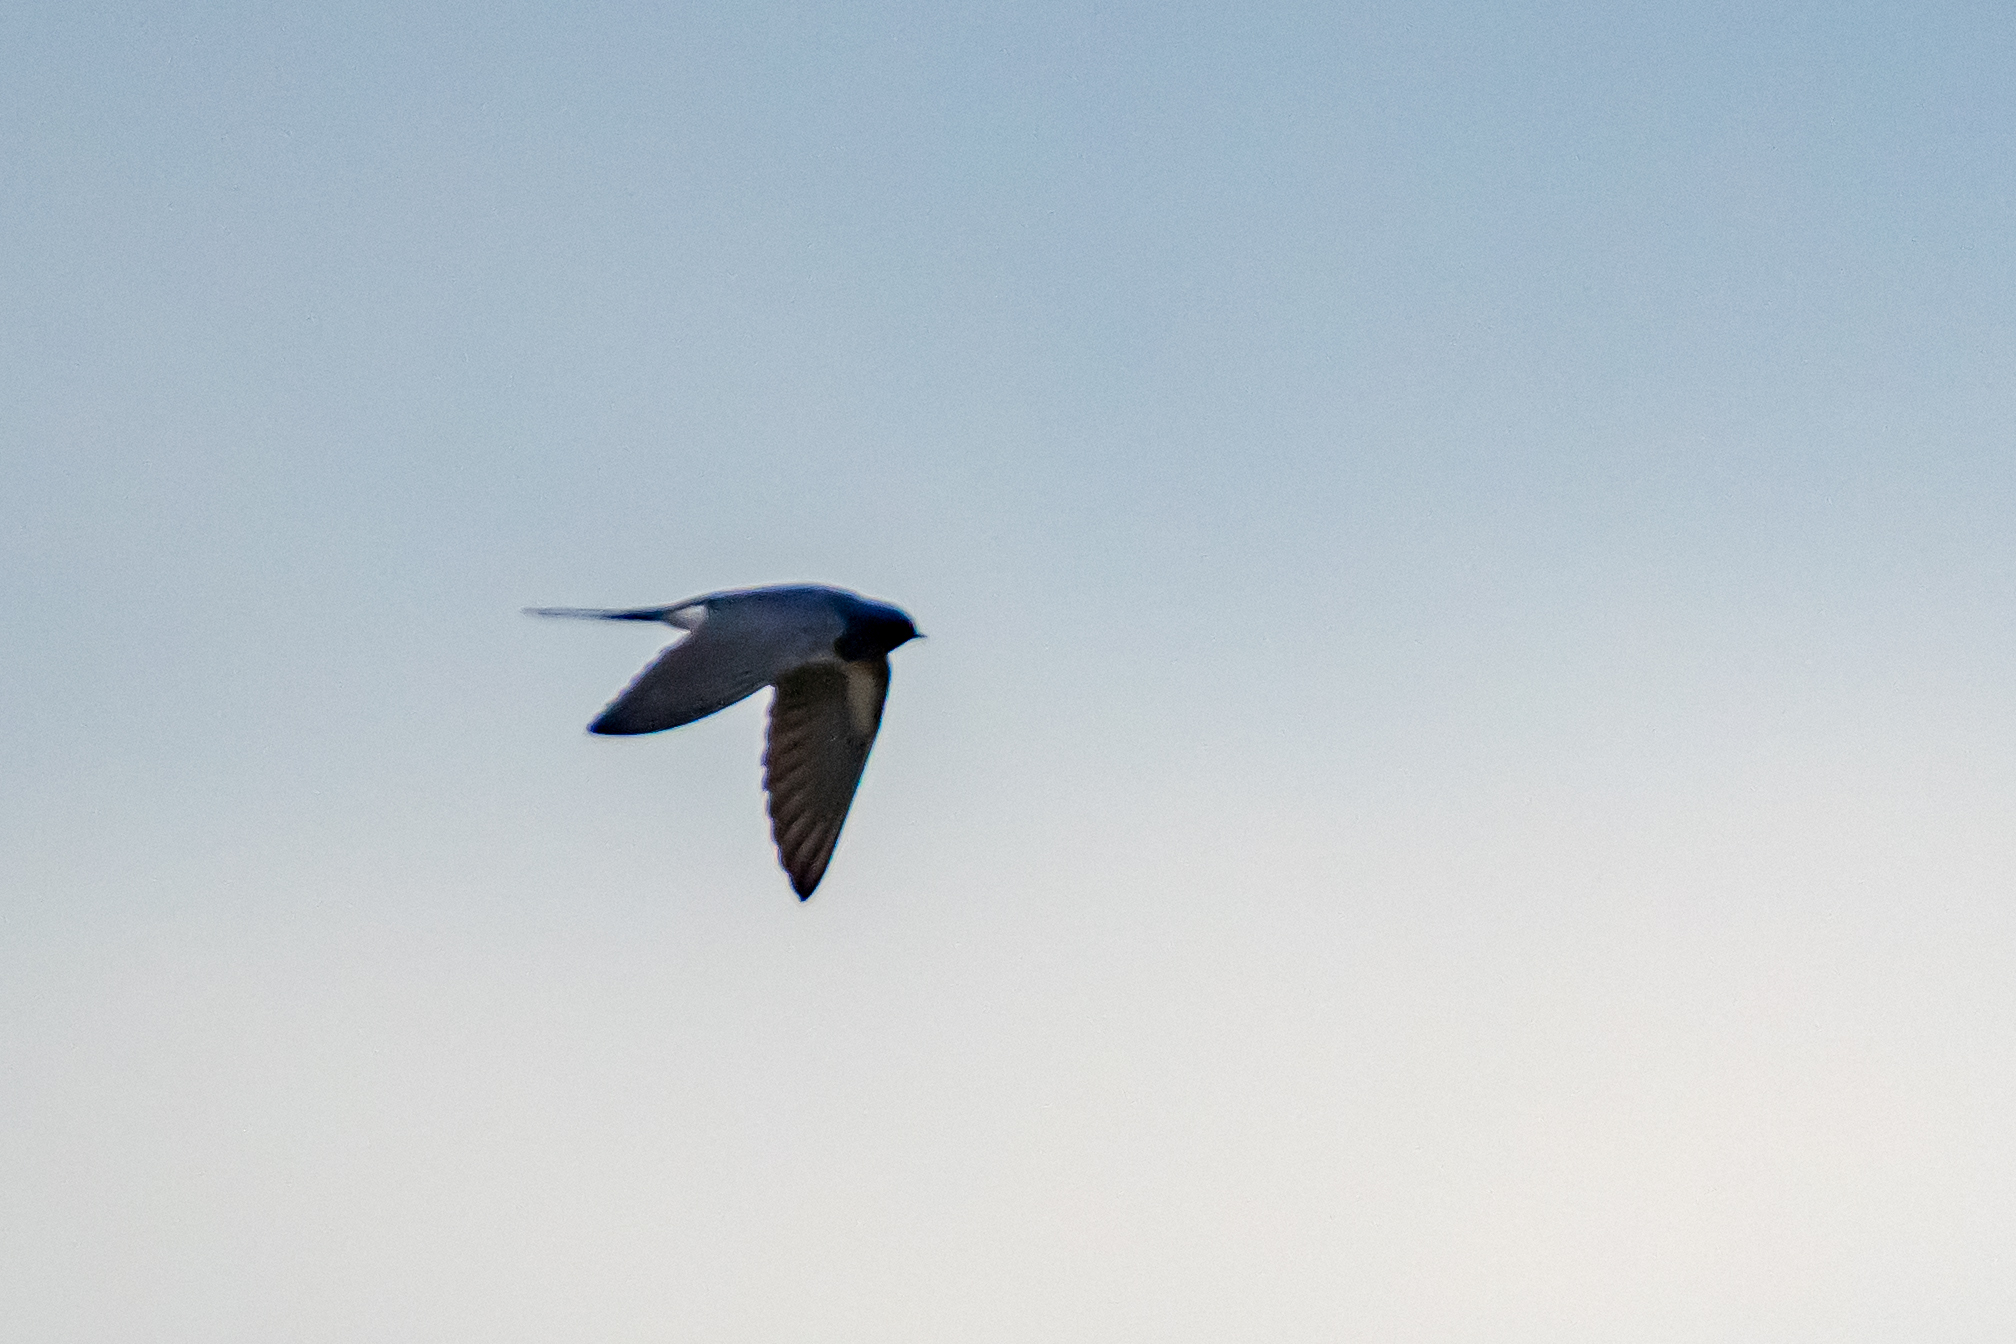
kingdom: Animalia
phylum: Chordata
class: Aves
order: Passeriformes
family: Hirundinidae
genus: Hirundo
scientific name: Hirundo rustica
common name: Barn swallow
